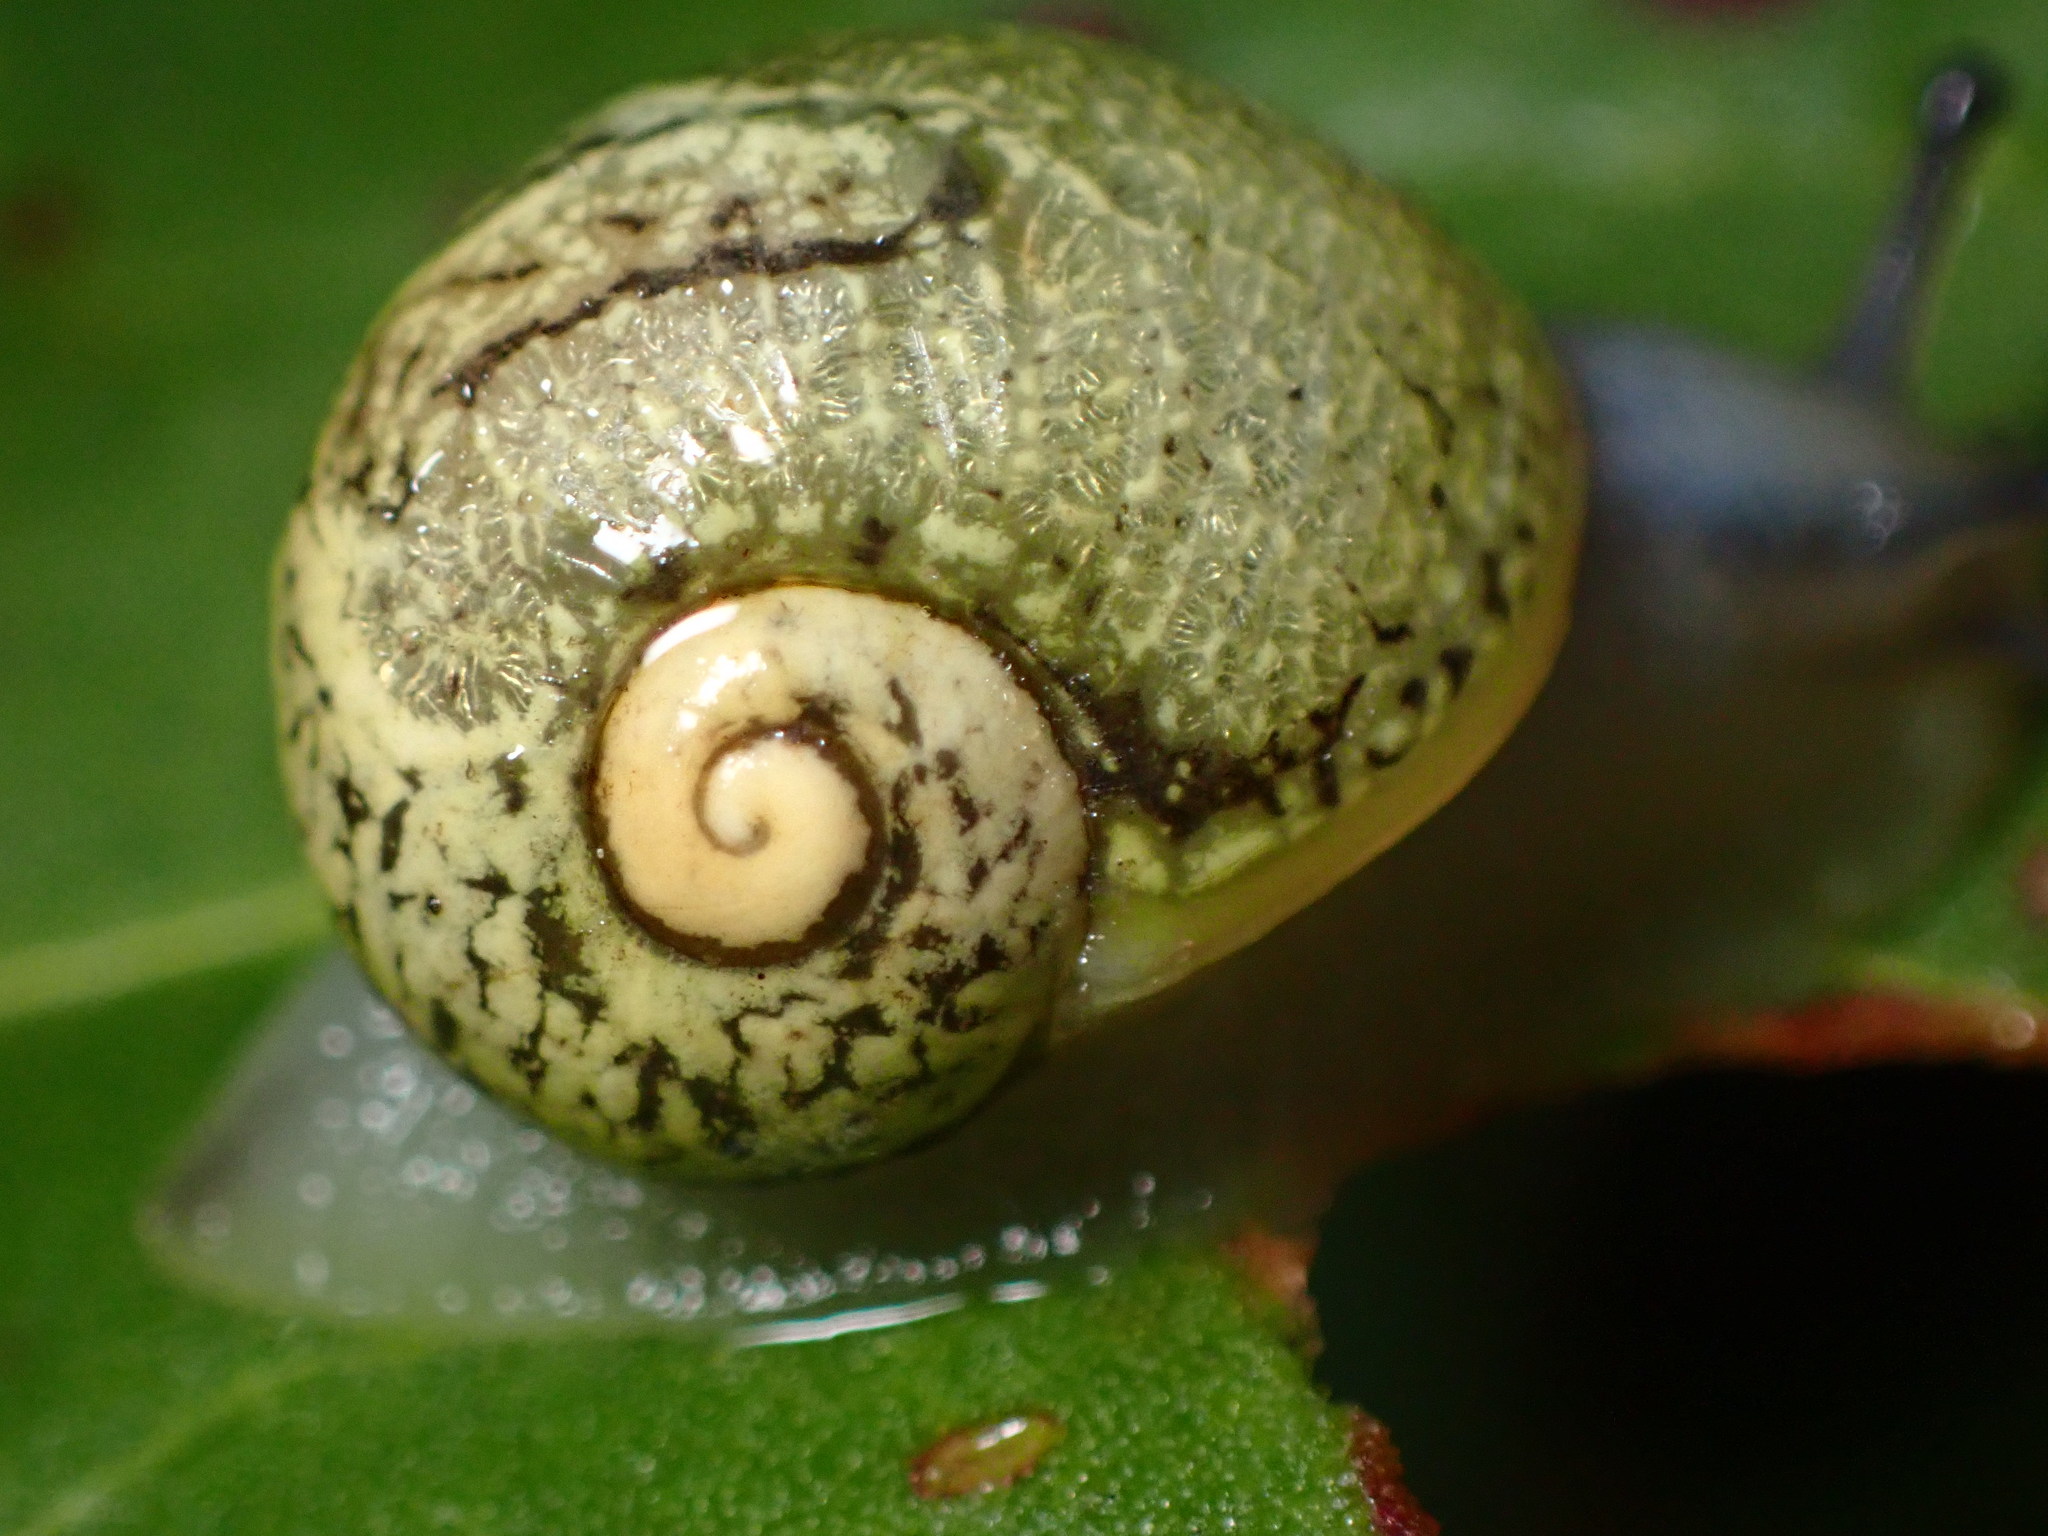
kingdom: Animalia
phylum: Mollusca
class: Gastropoda
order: Stylommatophora
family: Helicidae
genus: Cantareus
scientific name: Cantareus apertus
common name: Green gardensnail
